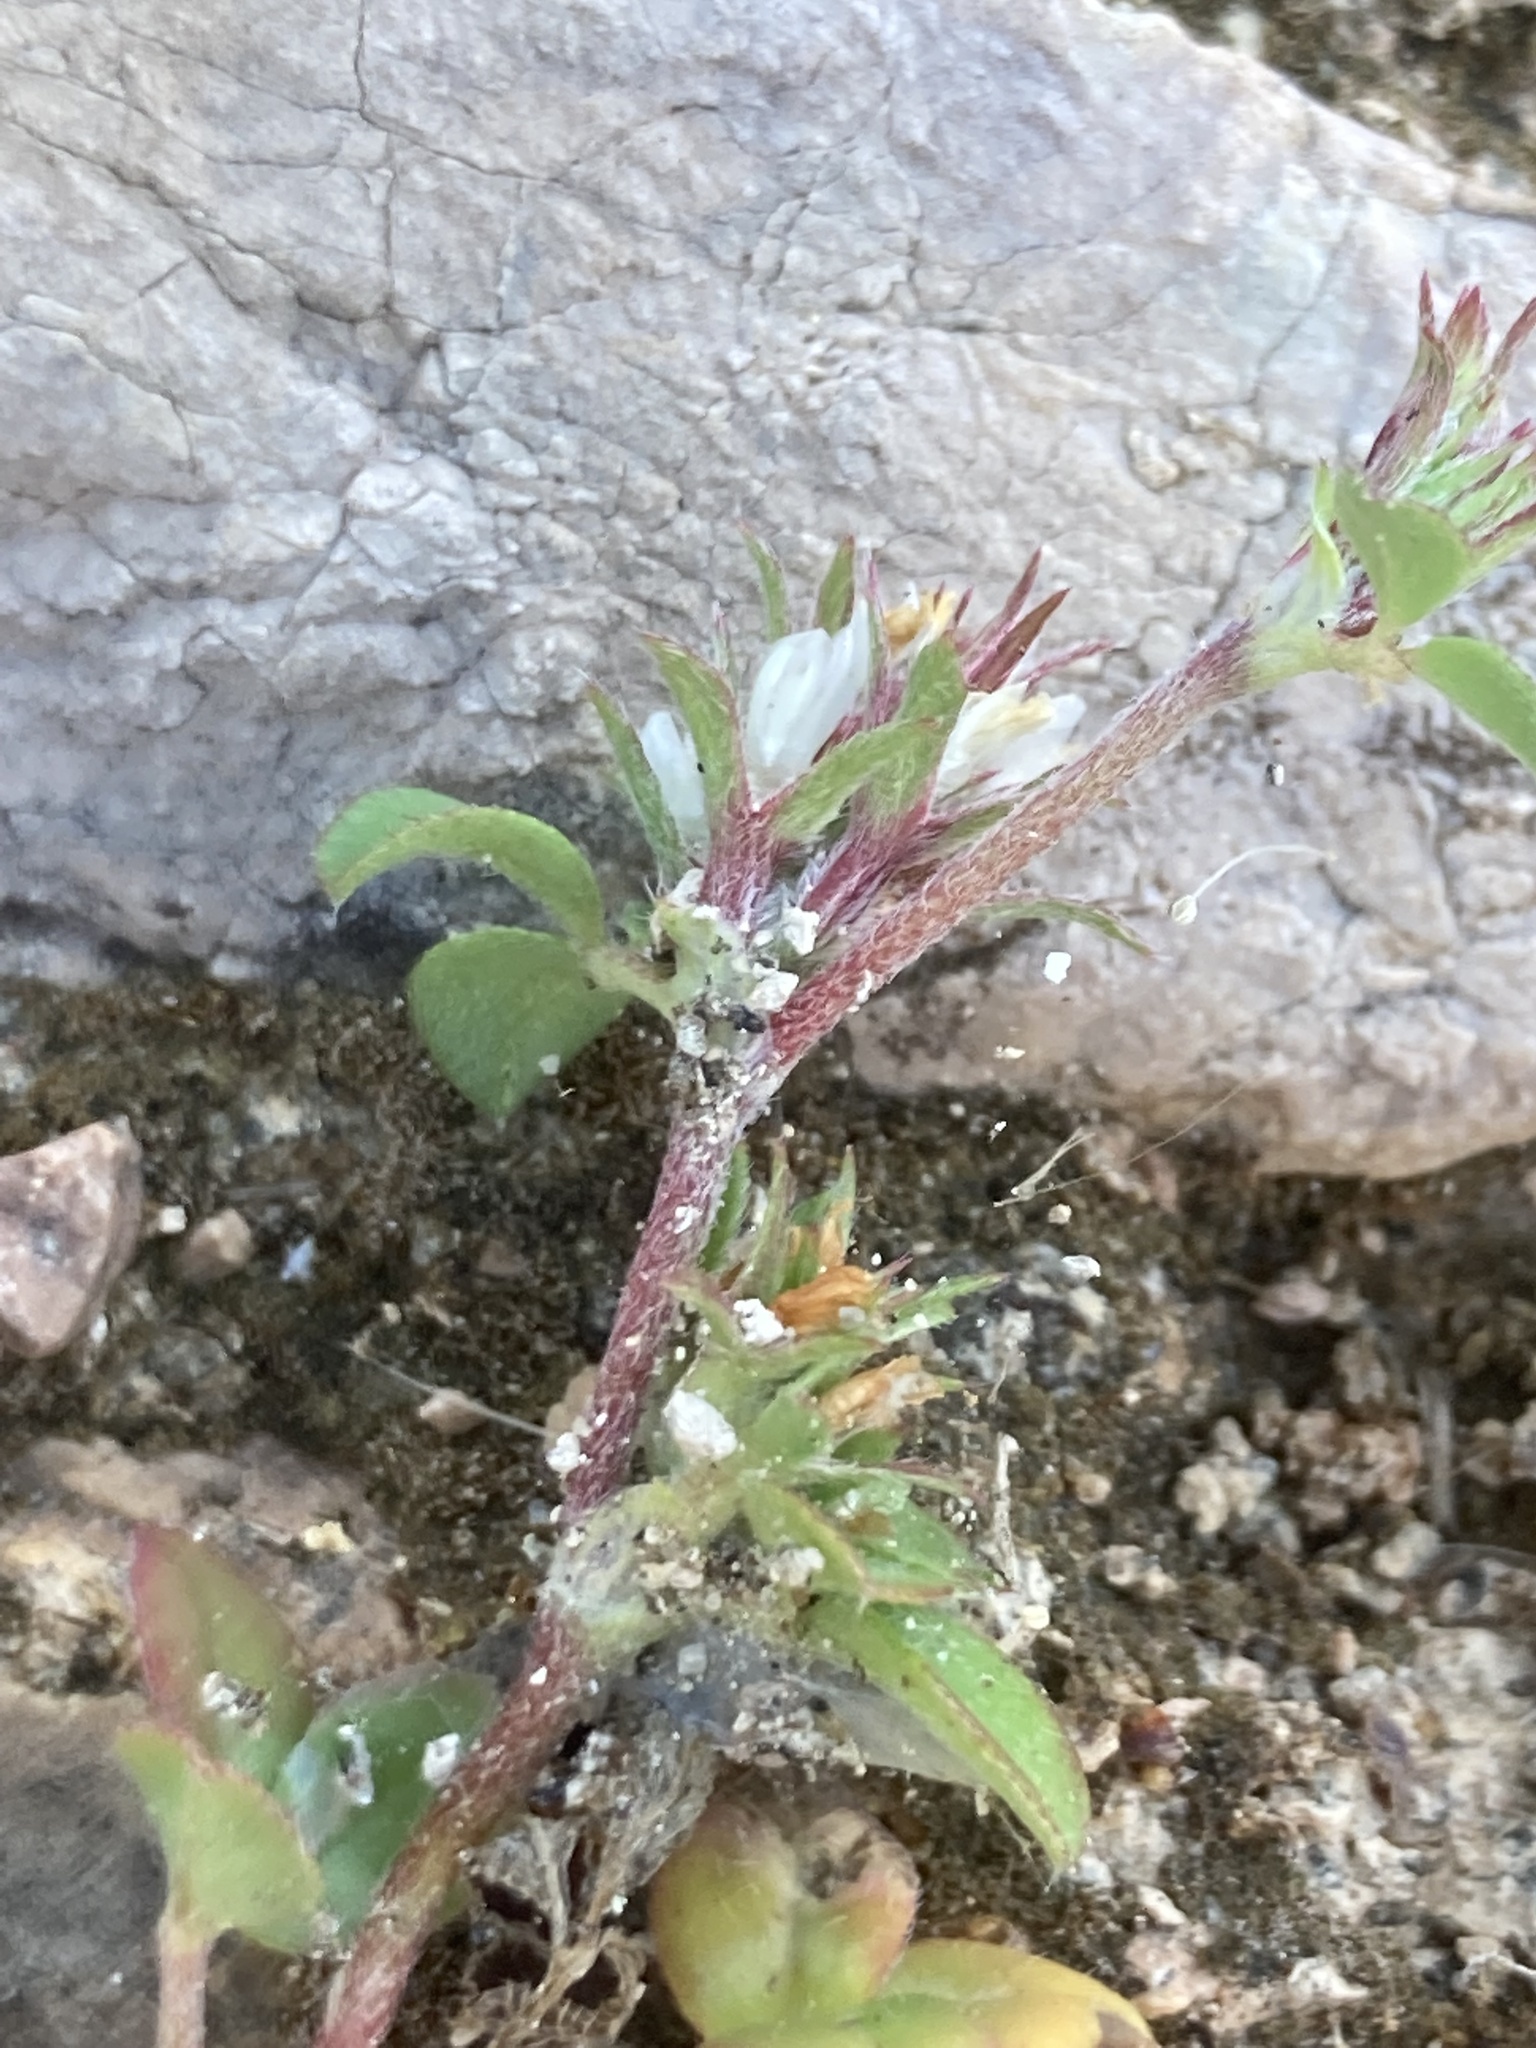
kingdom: Plantae
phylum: Tracheophyta
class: Magnoliopsida
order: Fabales
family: Fabaceae
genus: Trifolium
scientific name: Trifolium scabrum
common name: Rough clover
